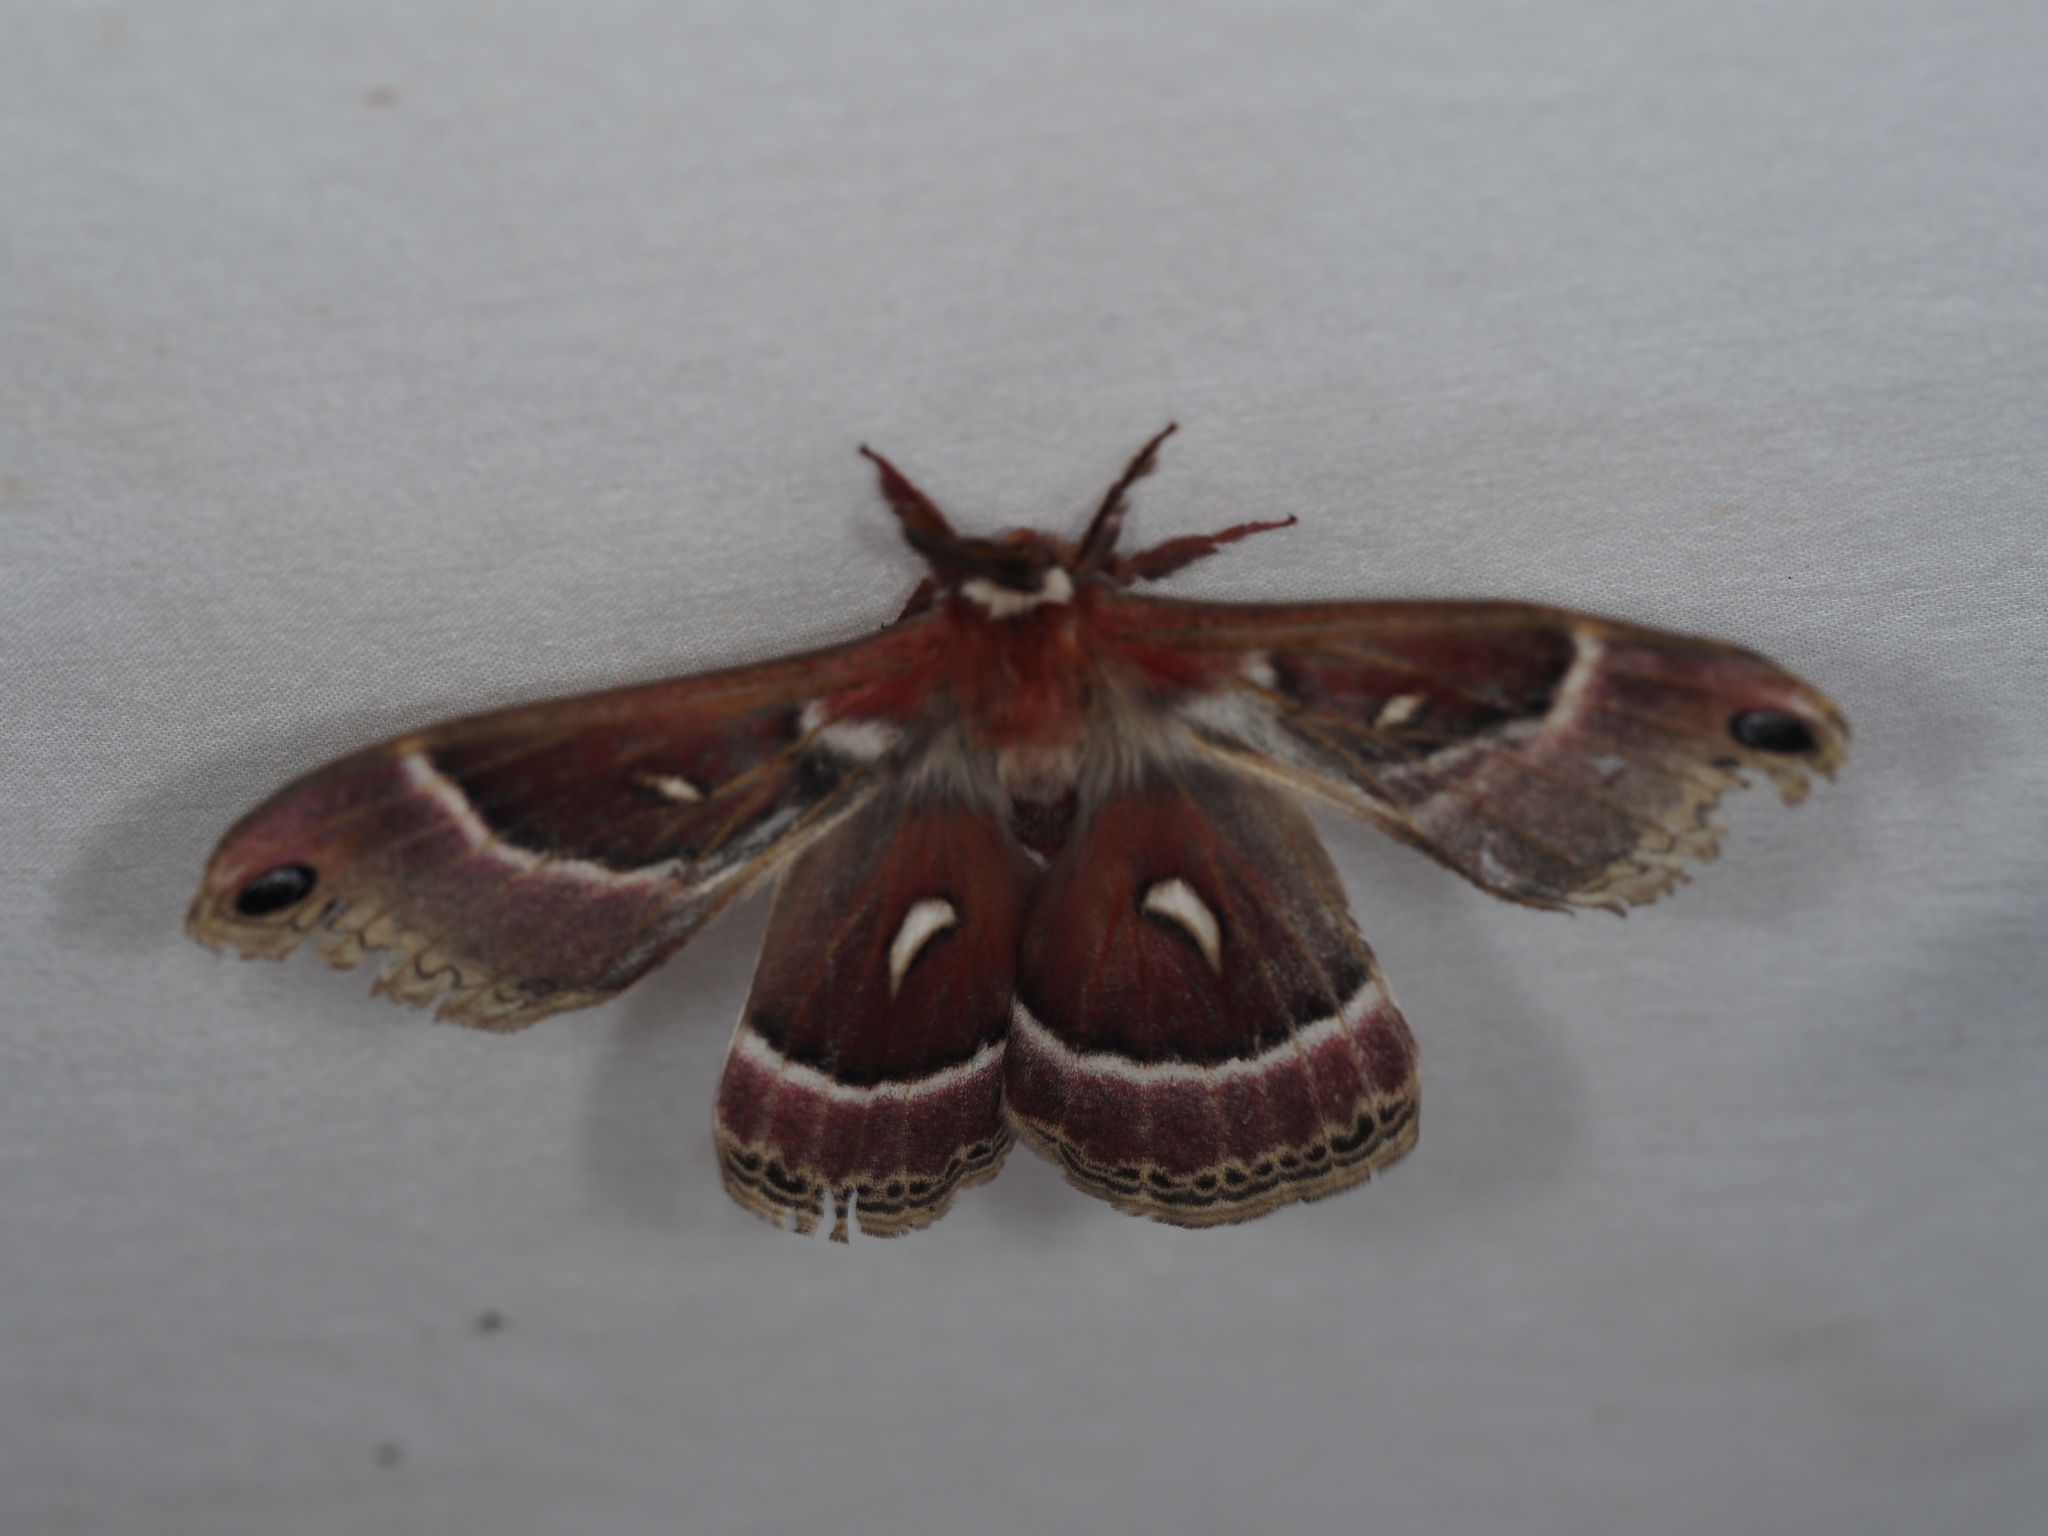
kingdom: Animalia
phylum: Arthropoda
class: Insecta
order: Lepidoptera
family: Saturniidae
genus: Hyalophora
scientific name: Hyalophora euryalus
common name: Ceanothus silkmoth
